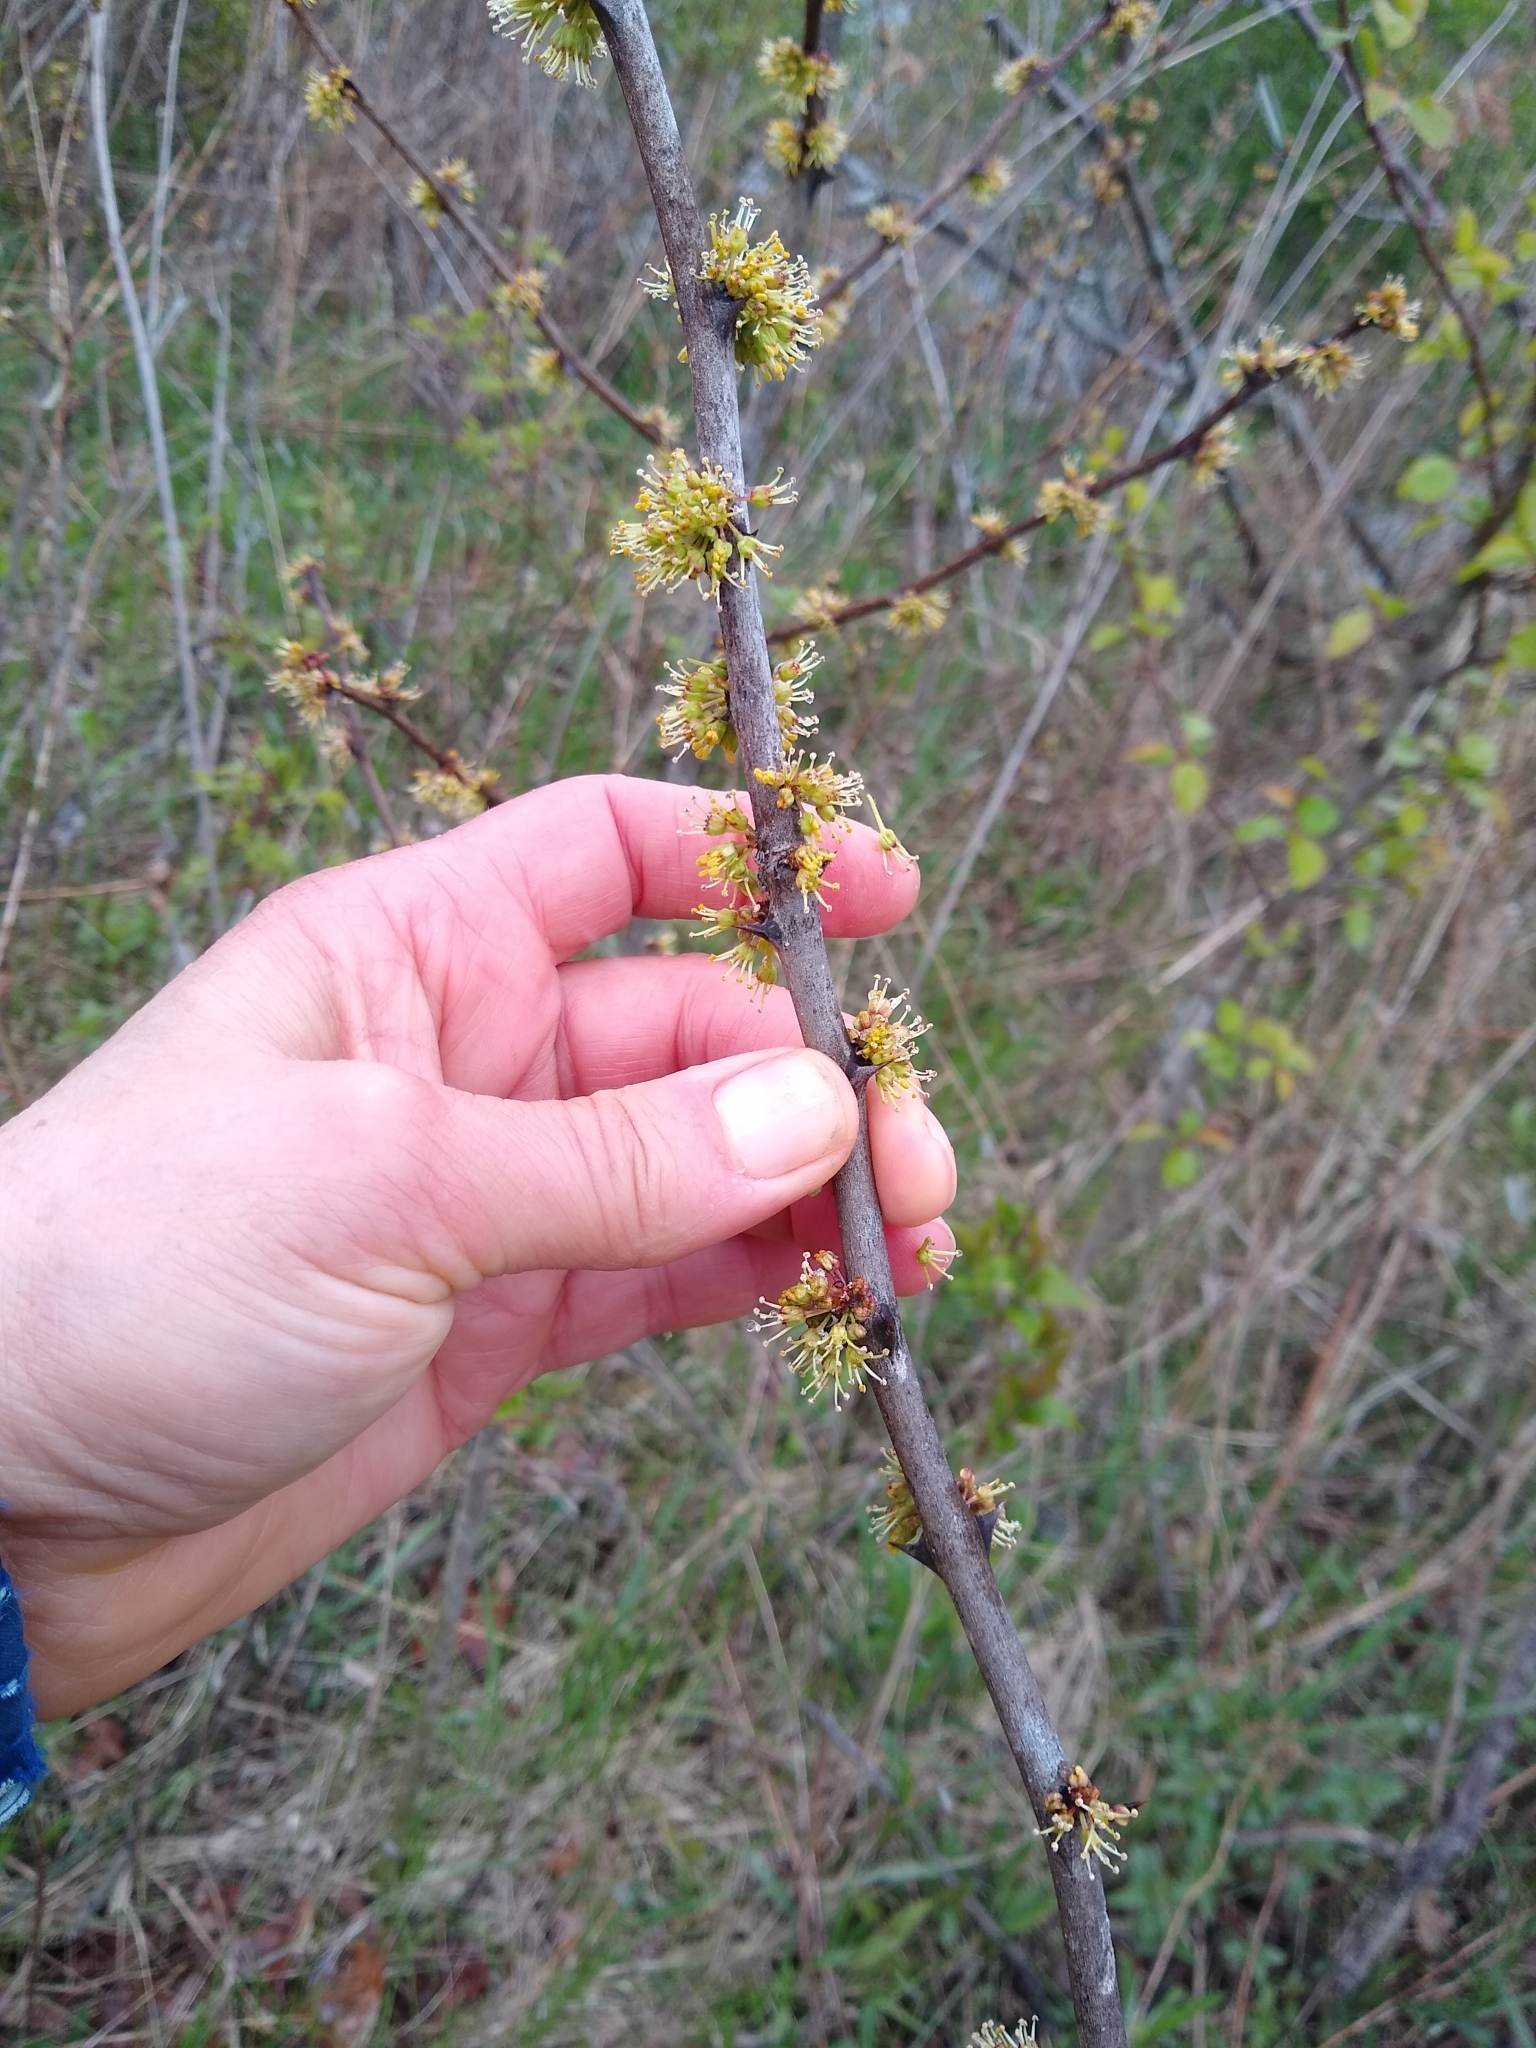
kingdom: Plantae
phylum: Tracheophyta
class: Magnoliopsida
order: Sapindales
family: Rutaceae
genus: Zanthoxylum
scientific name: Zanthoxylum americanum
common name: Northern prickly-ash
